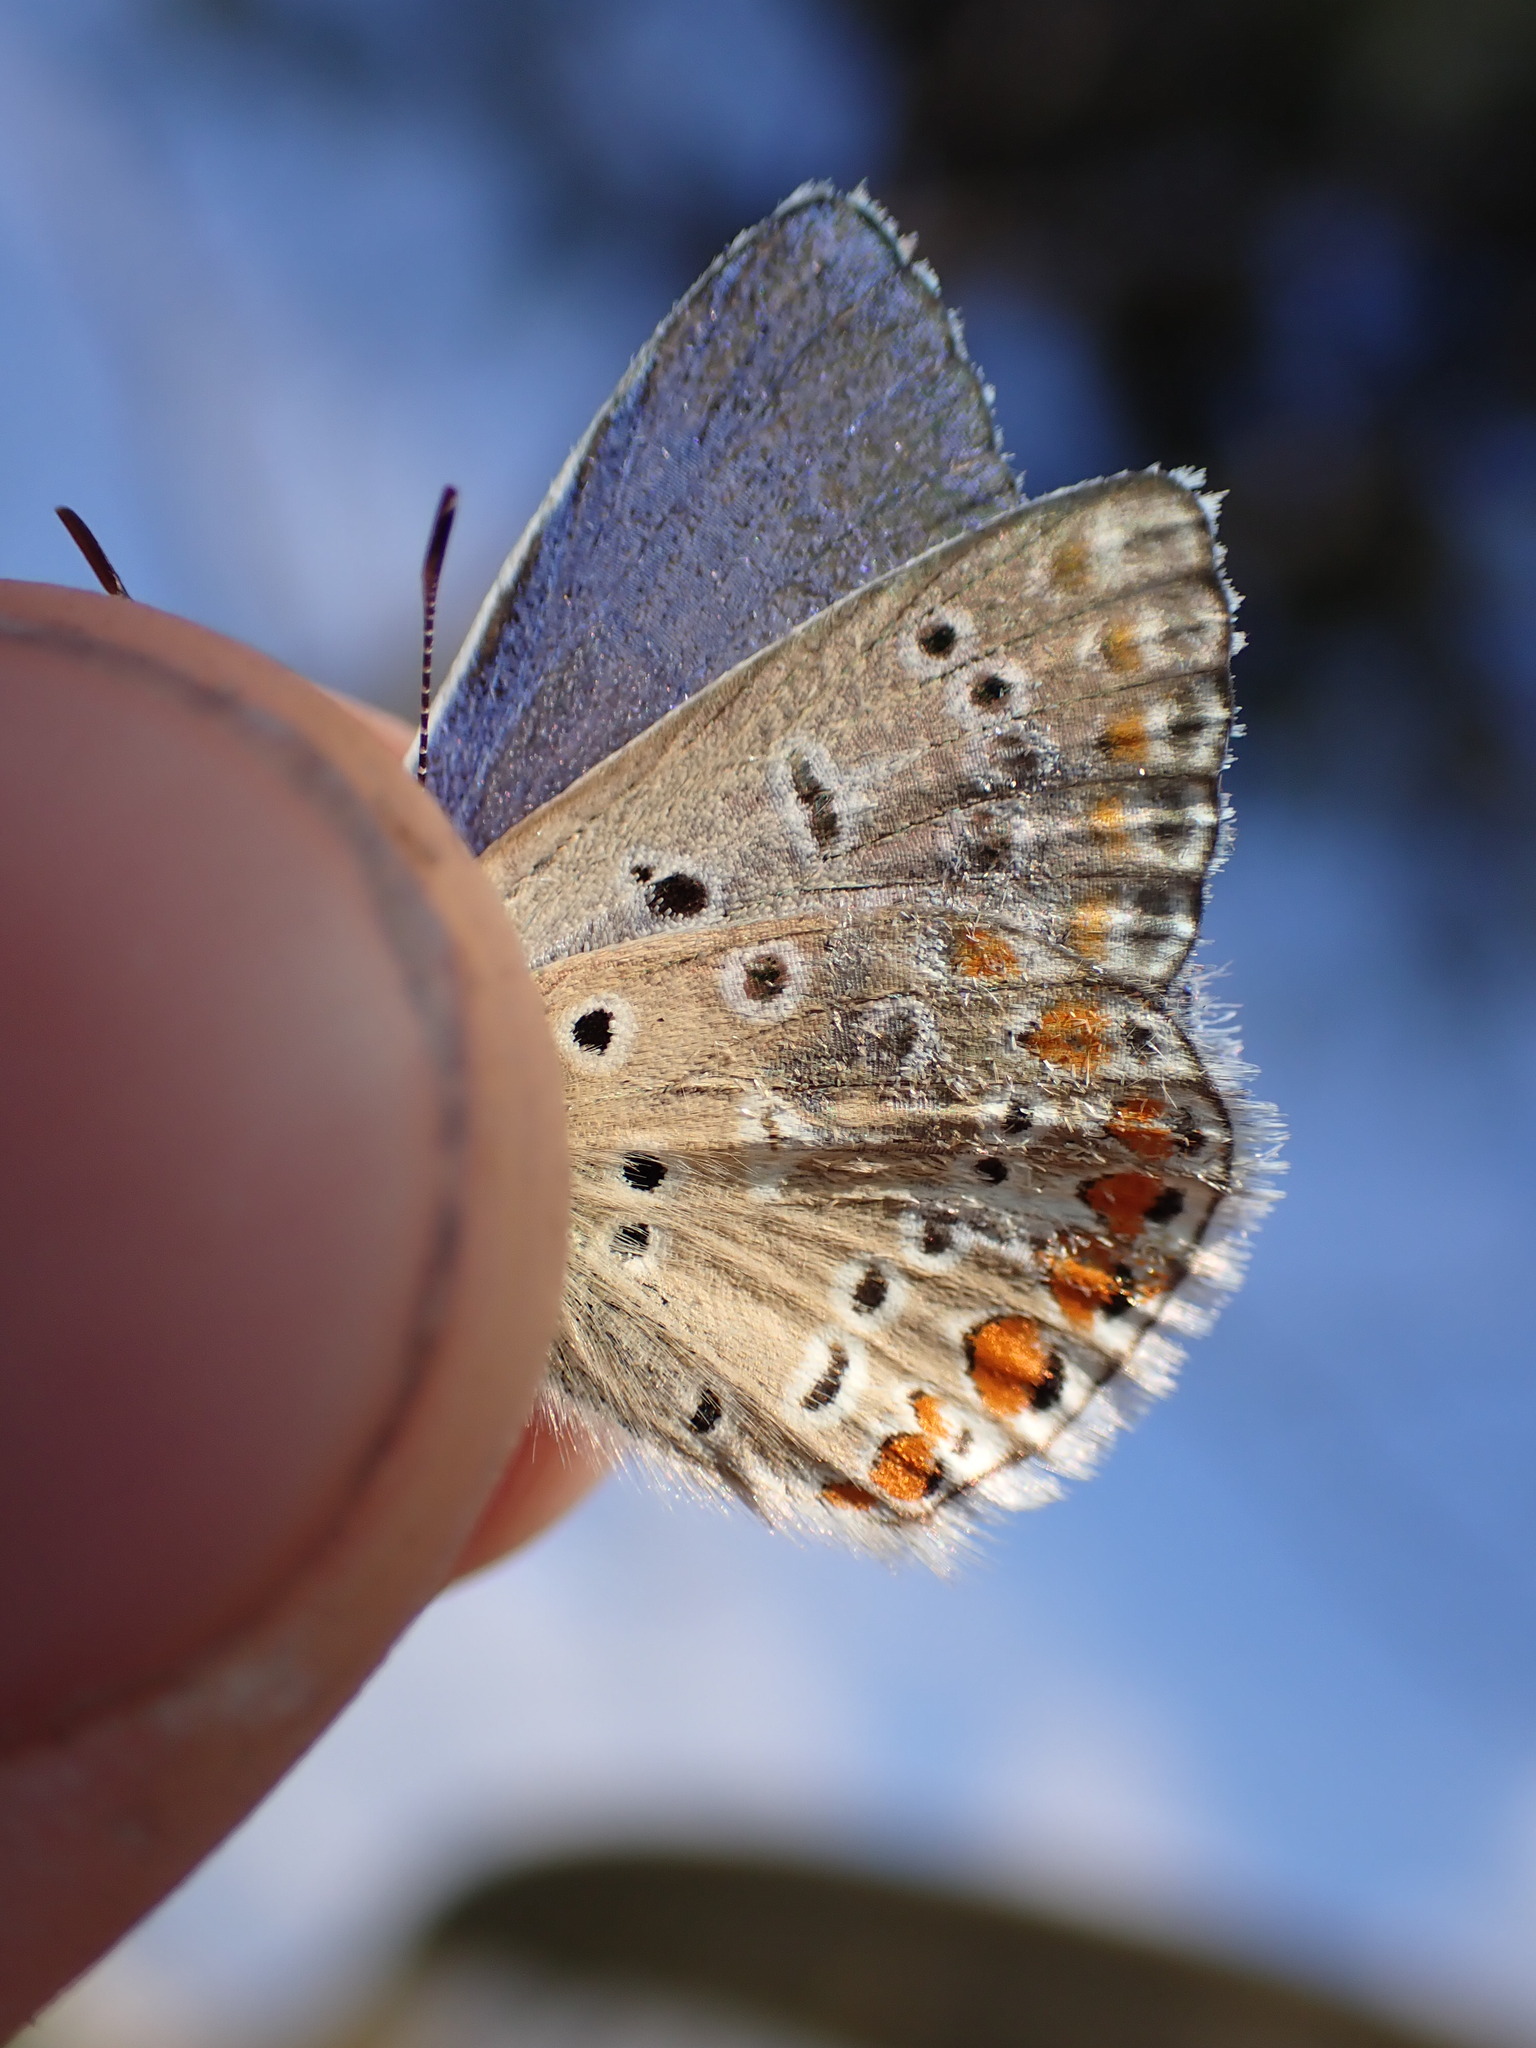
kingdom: Animalia
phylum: Arthropoda
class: Insecta
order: Lepidoptera
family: Lycaenidae
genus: Polyommatus
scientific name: Polyommatus icarus
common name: Common blue
